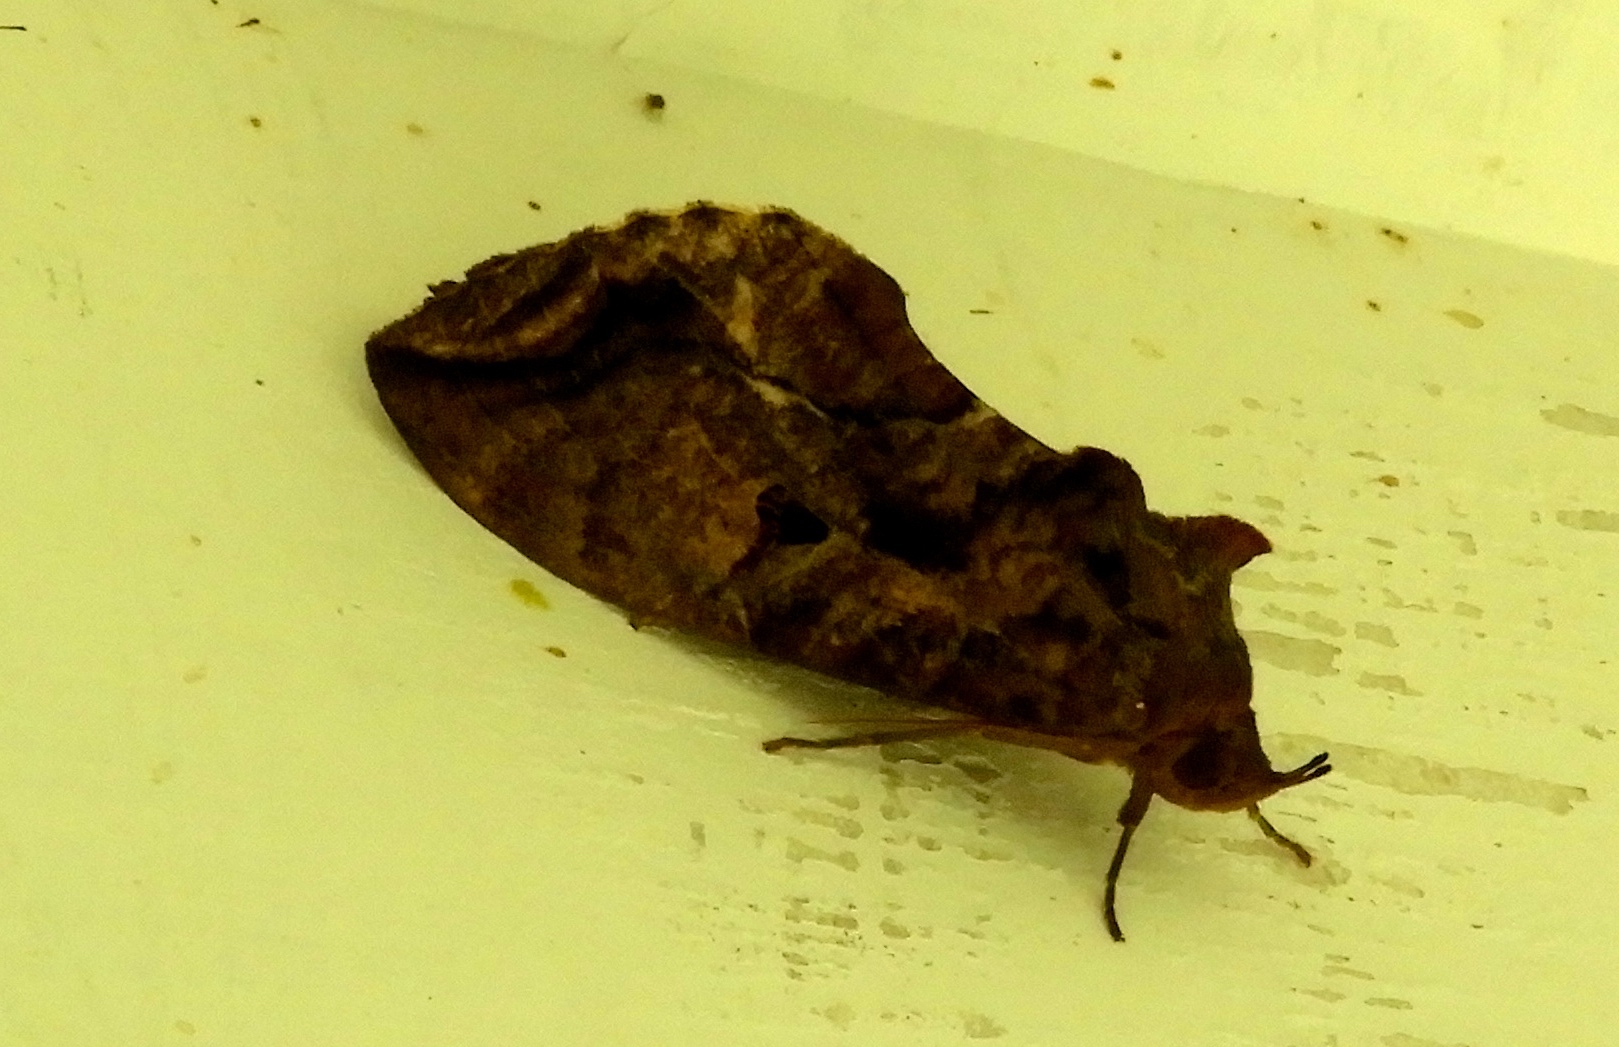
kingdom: Animalia
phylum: Arthropoda
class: Insecta
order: Lepidoptera
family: Erebidae
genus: Eudocima
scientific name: Eudocima
